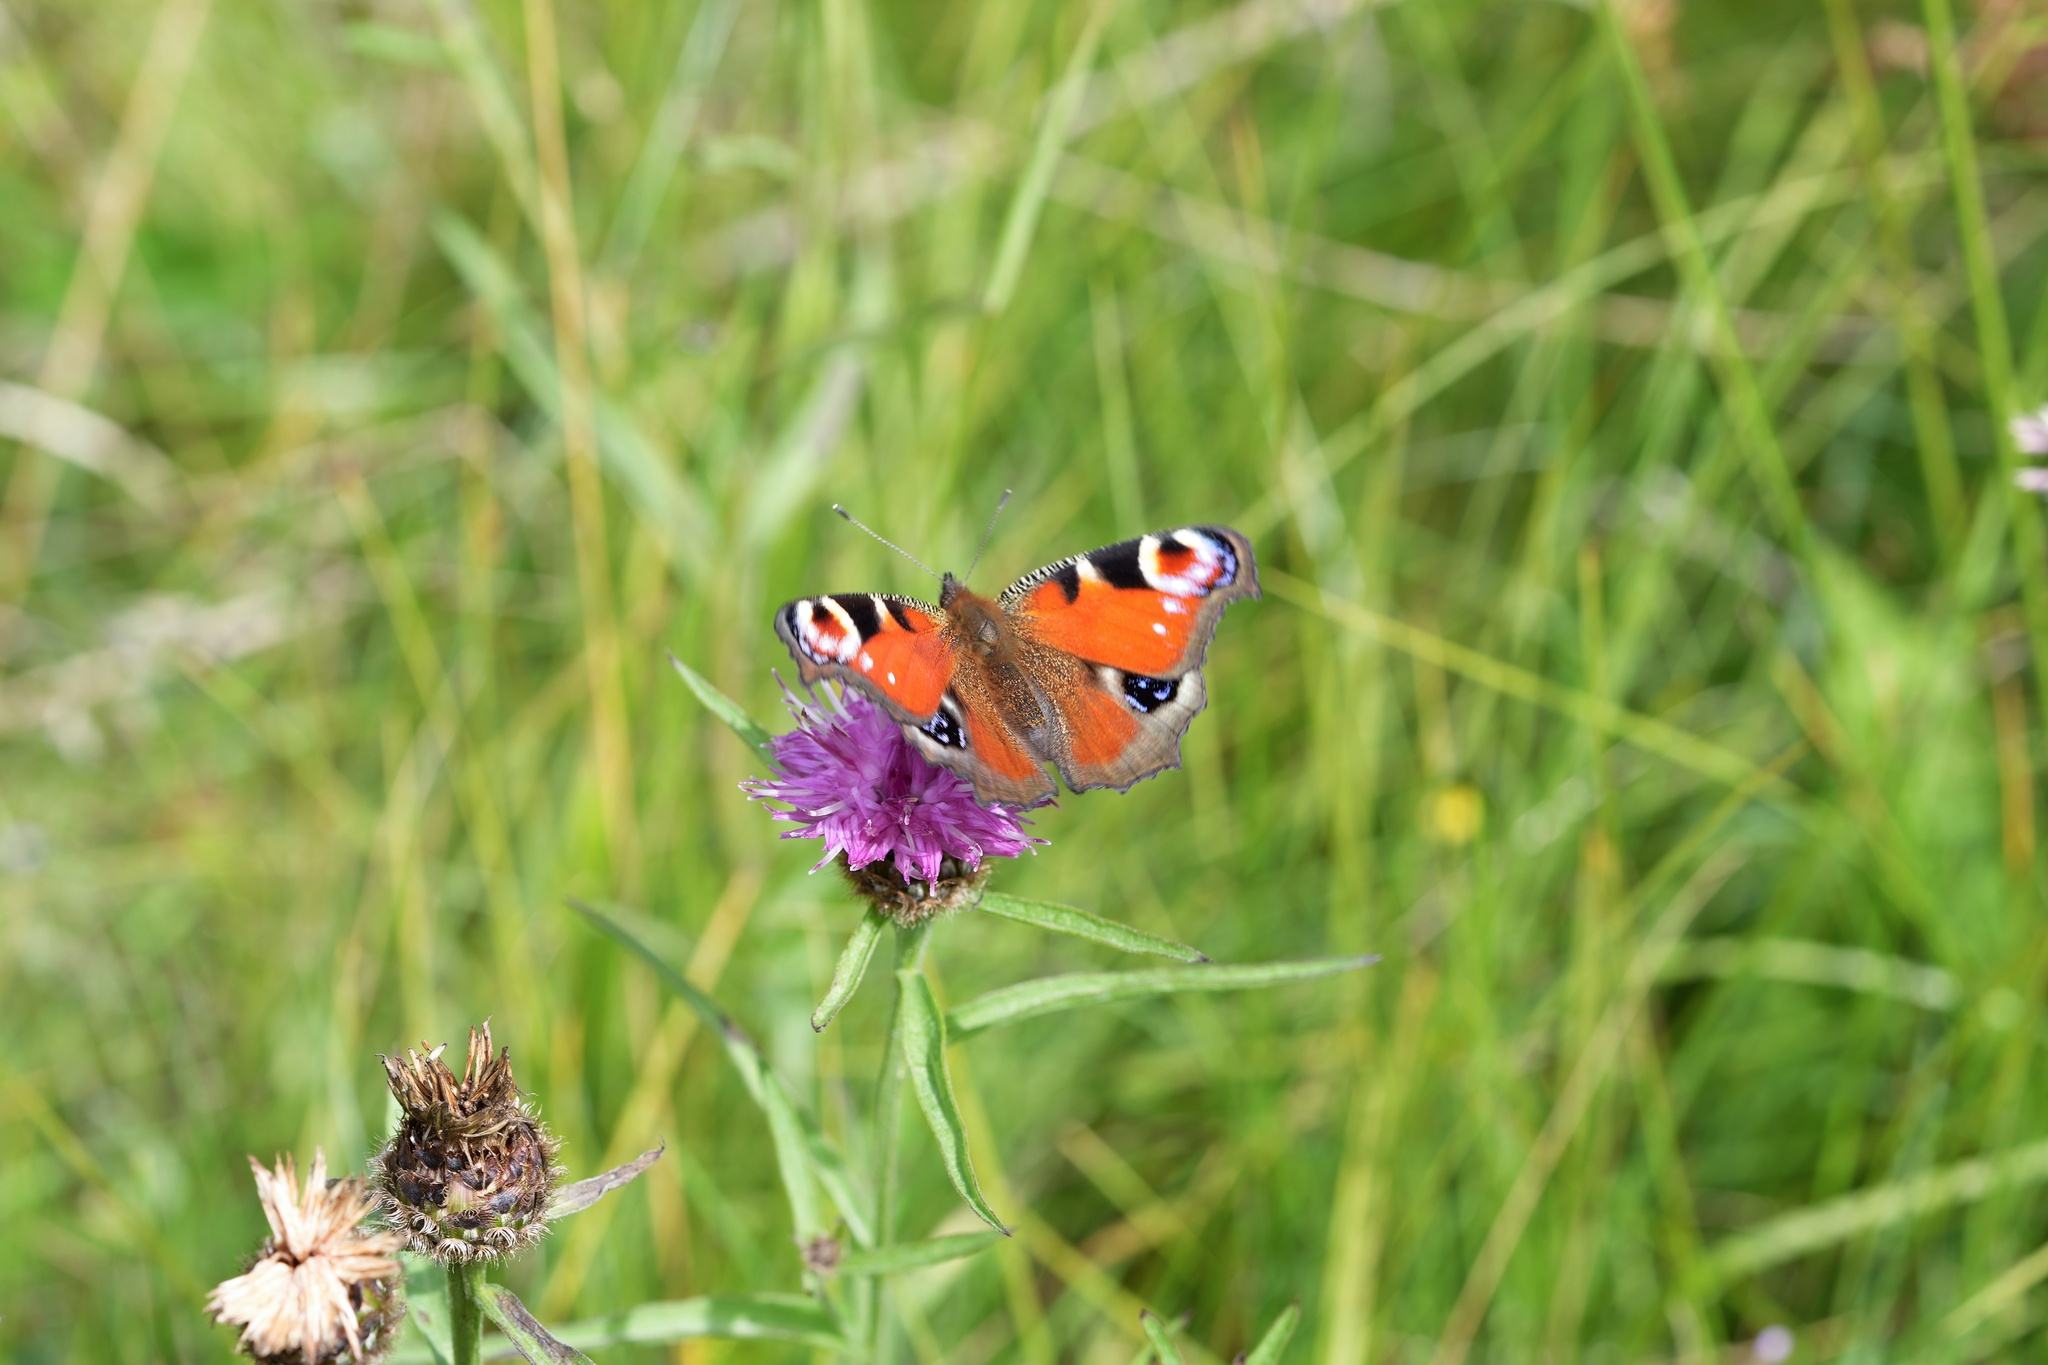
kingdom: Animalia
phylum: Arthropoda
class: Insecta
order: Lepidoptera
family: Nymphalidae
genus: Aglais
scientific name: Aglais io
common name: Peacock
